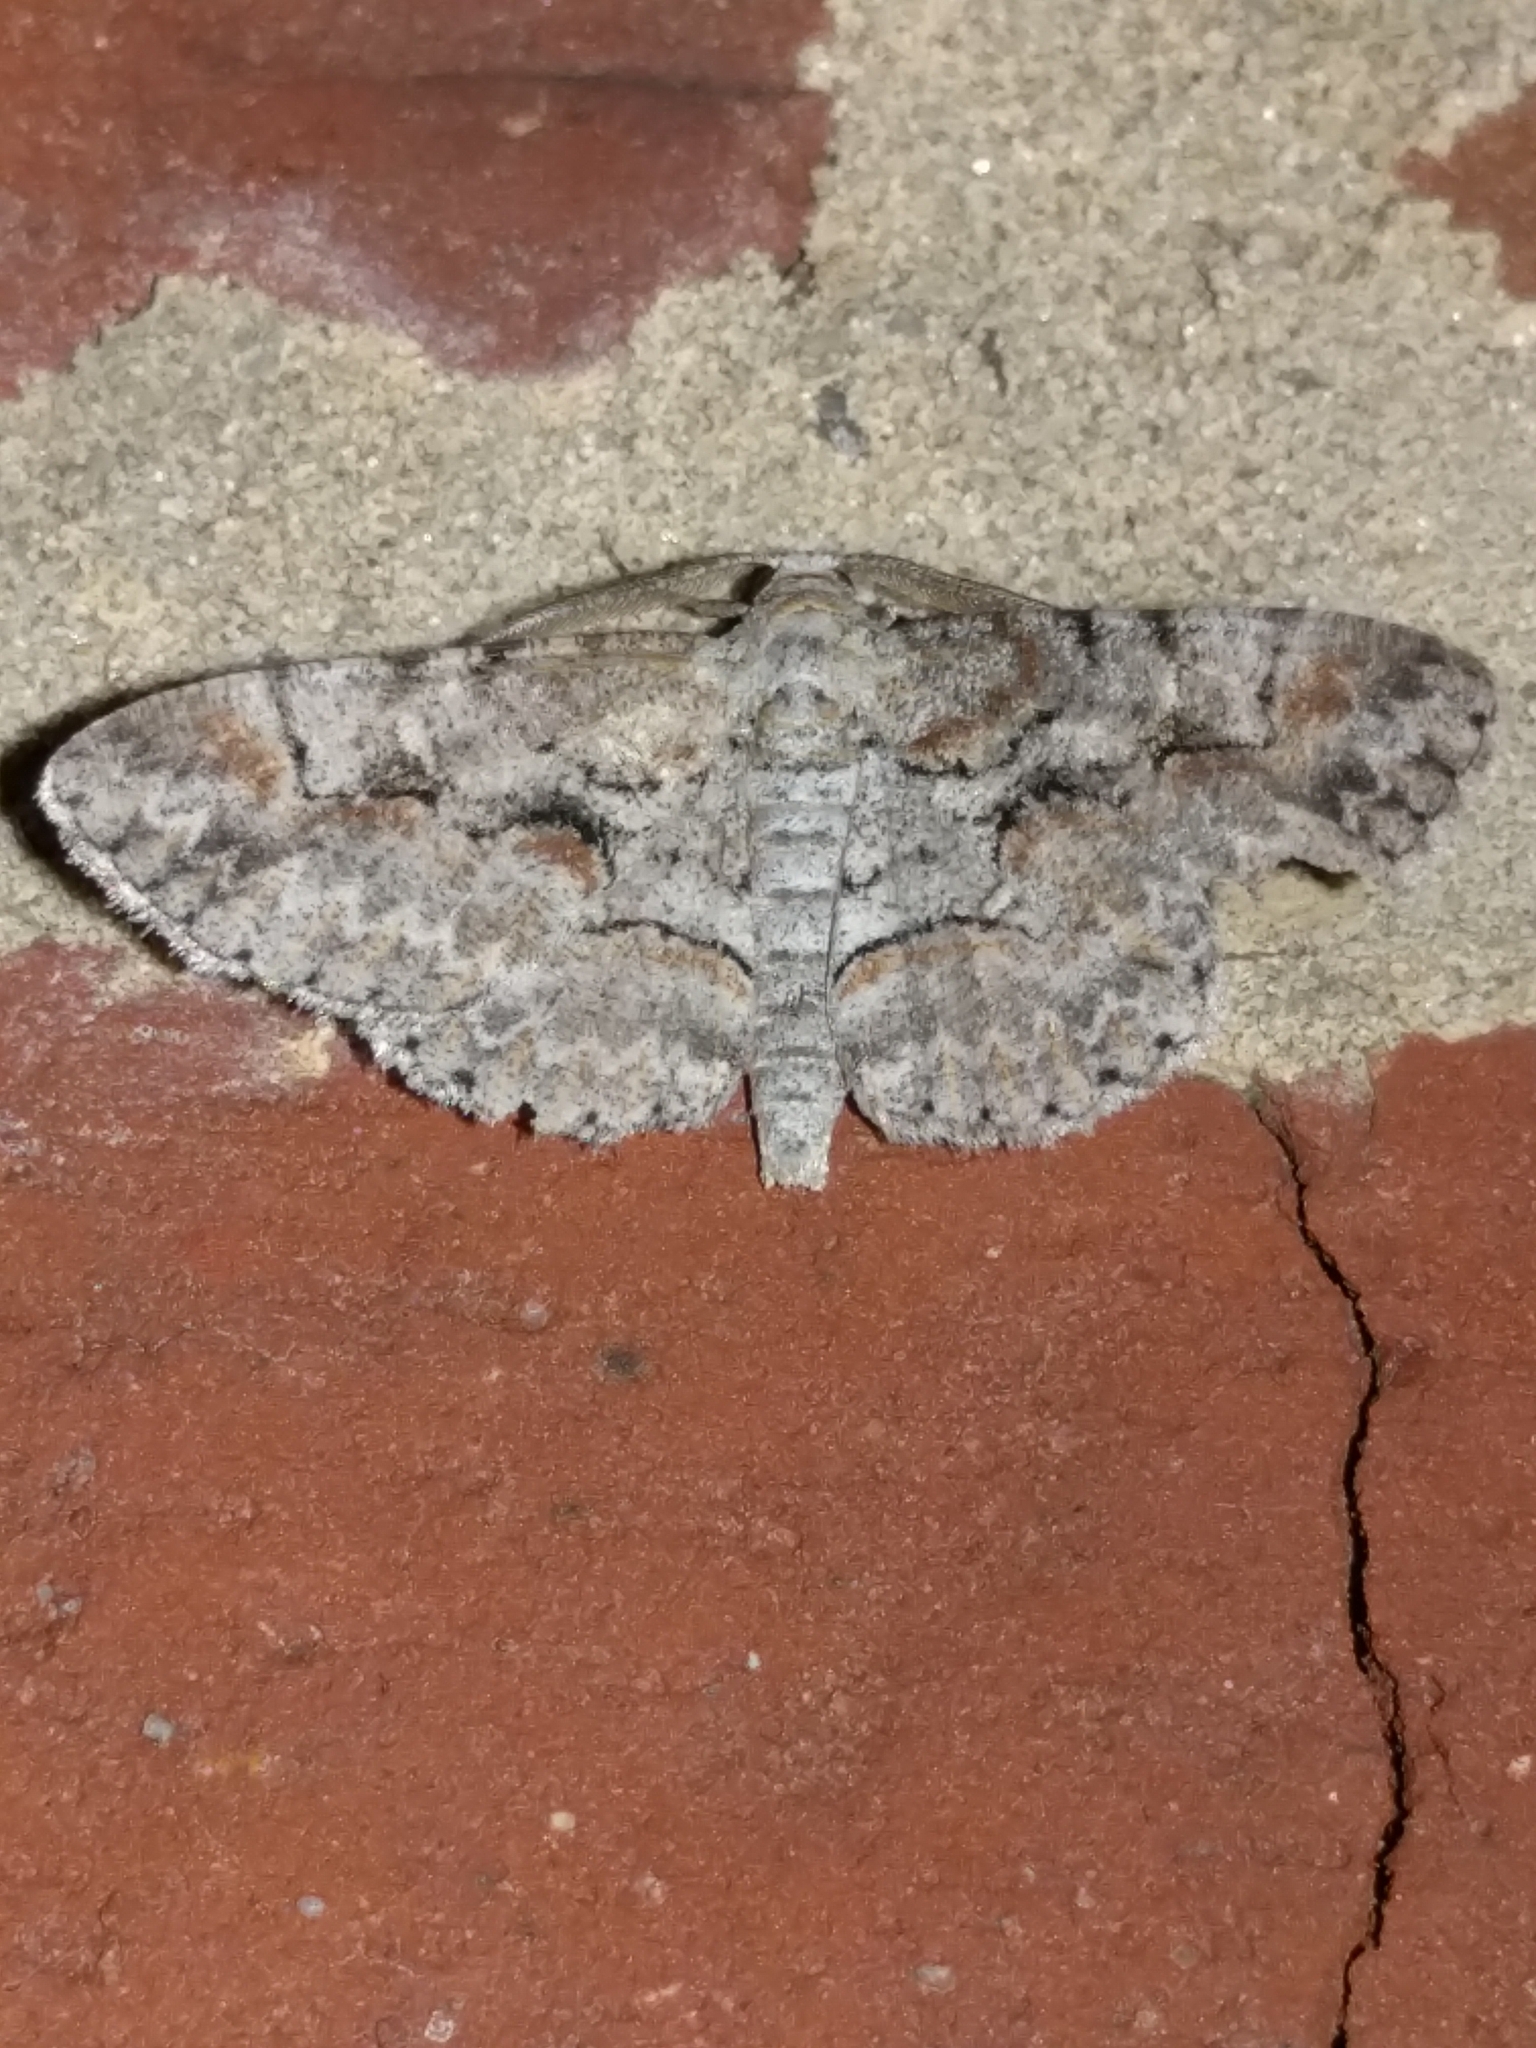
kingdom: Animalia
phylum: Arthropoda
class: Insecta
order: Lepidoptera
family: Geometridae
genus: Iridopsis
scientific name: Iridopsis defectaria
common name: Brown-shaded gray
